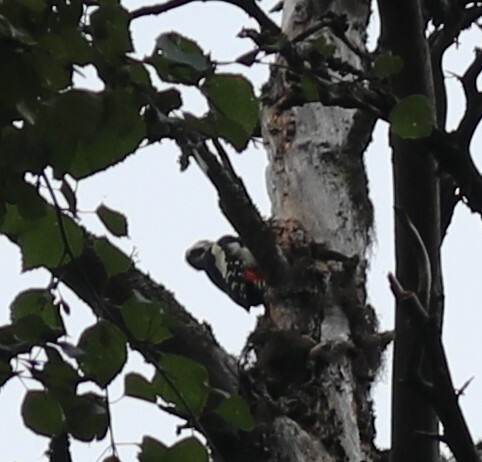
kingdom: Animalia
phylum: Chordata
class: Aves
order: Piciformes
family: Picidae
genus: Dendrocopos
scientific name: Dendrocopos major
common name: Great spotted woodpecker
